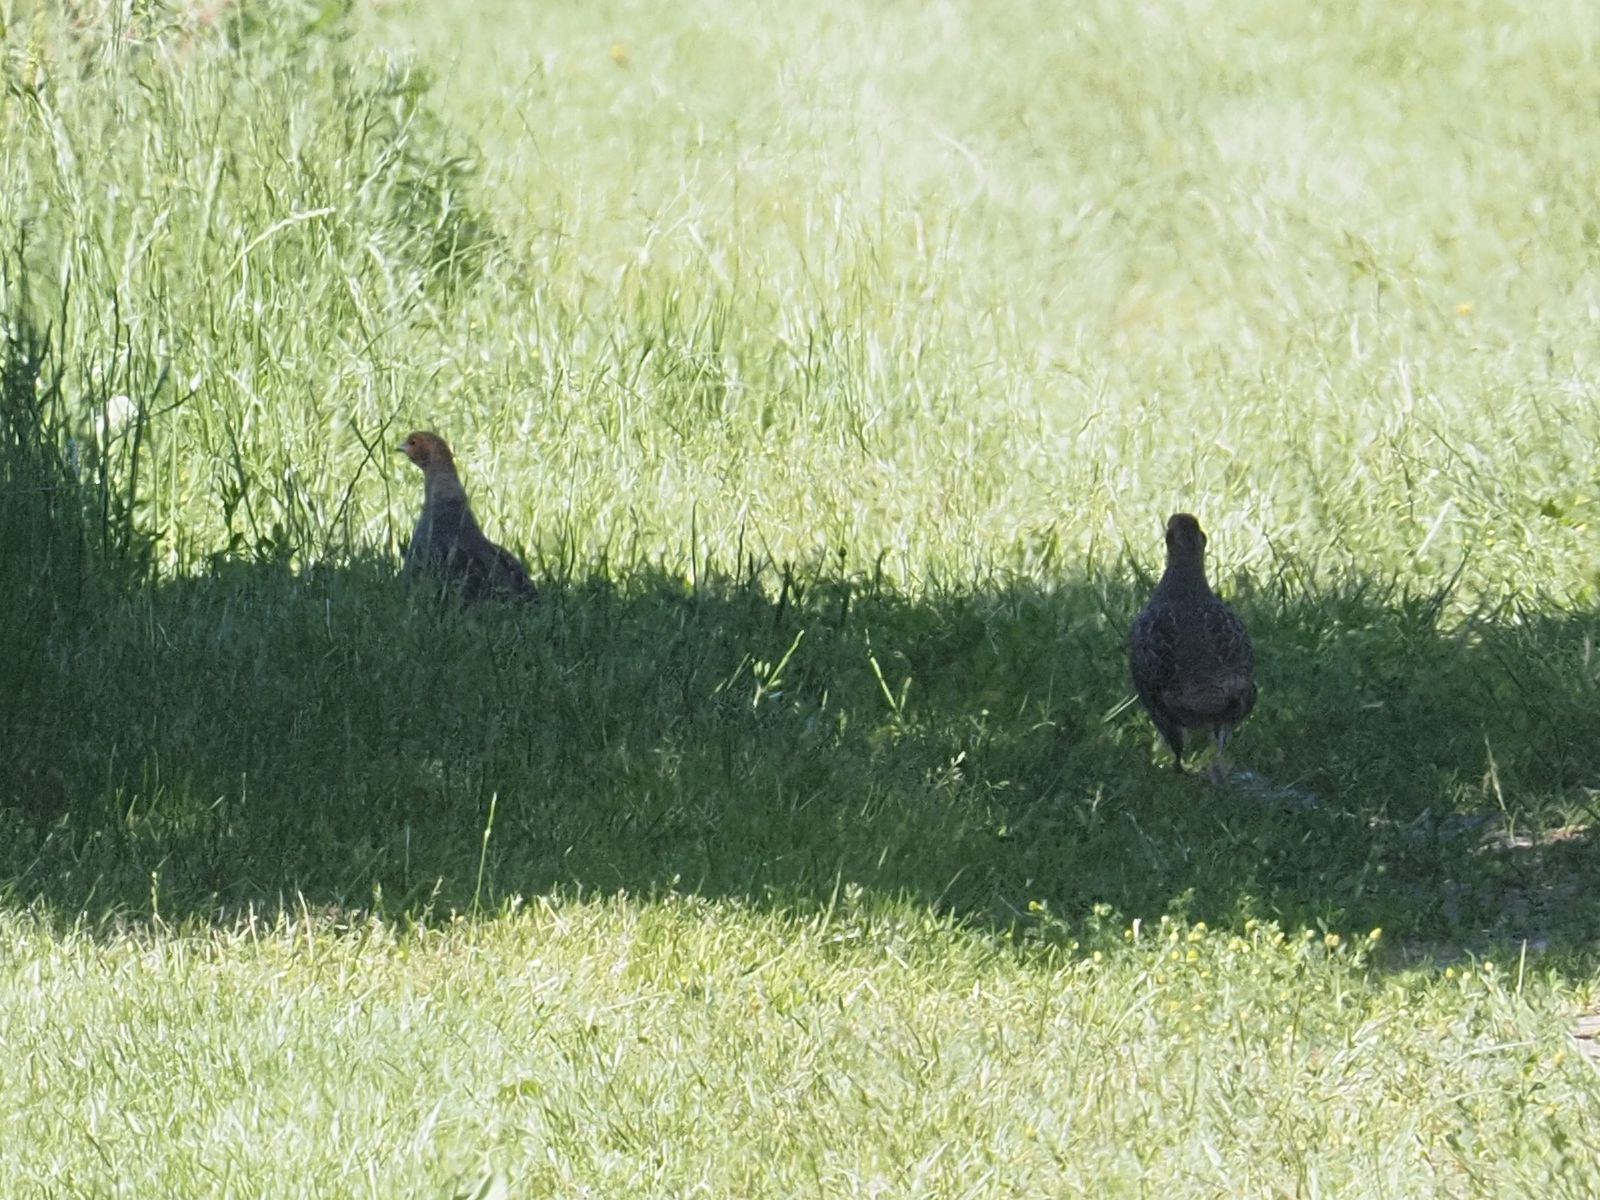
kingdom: Animalia
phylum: Chordata
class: Aves
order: Galliformes
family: Phasianidae
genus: Perdix
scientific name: Perdix perdix
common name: Grey partridge
